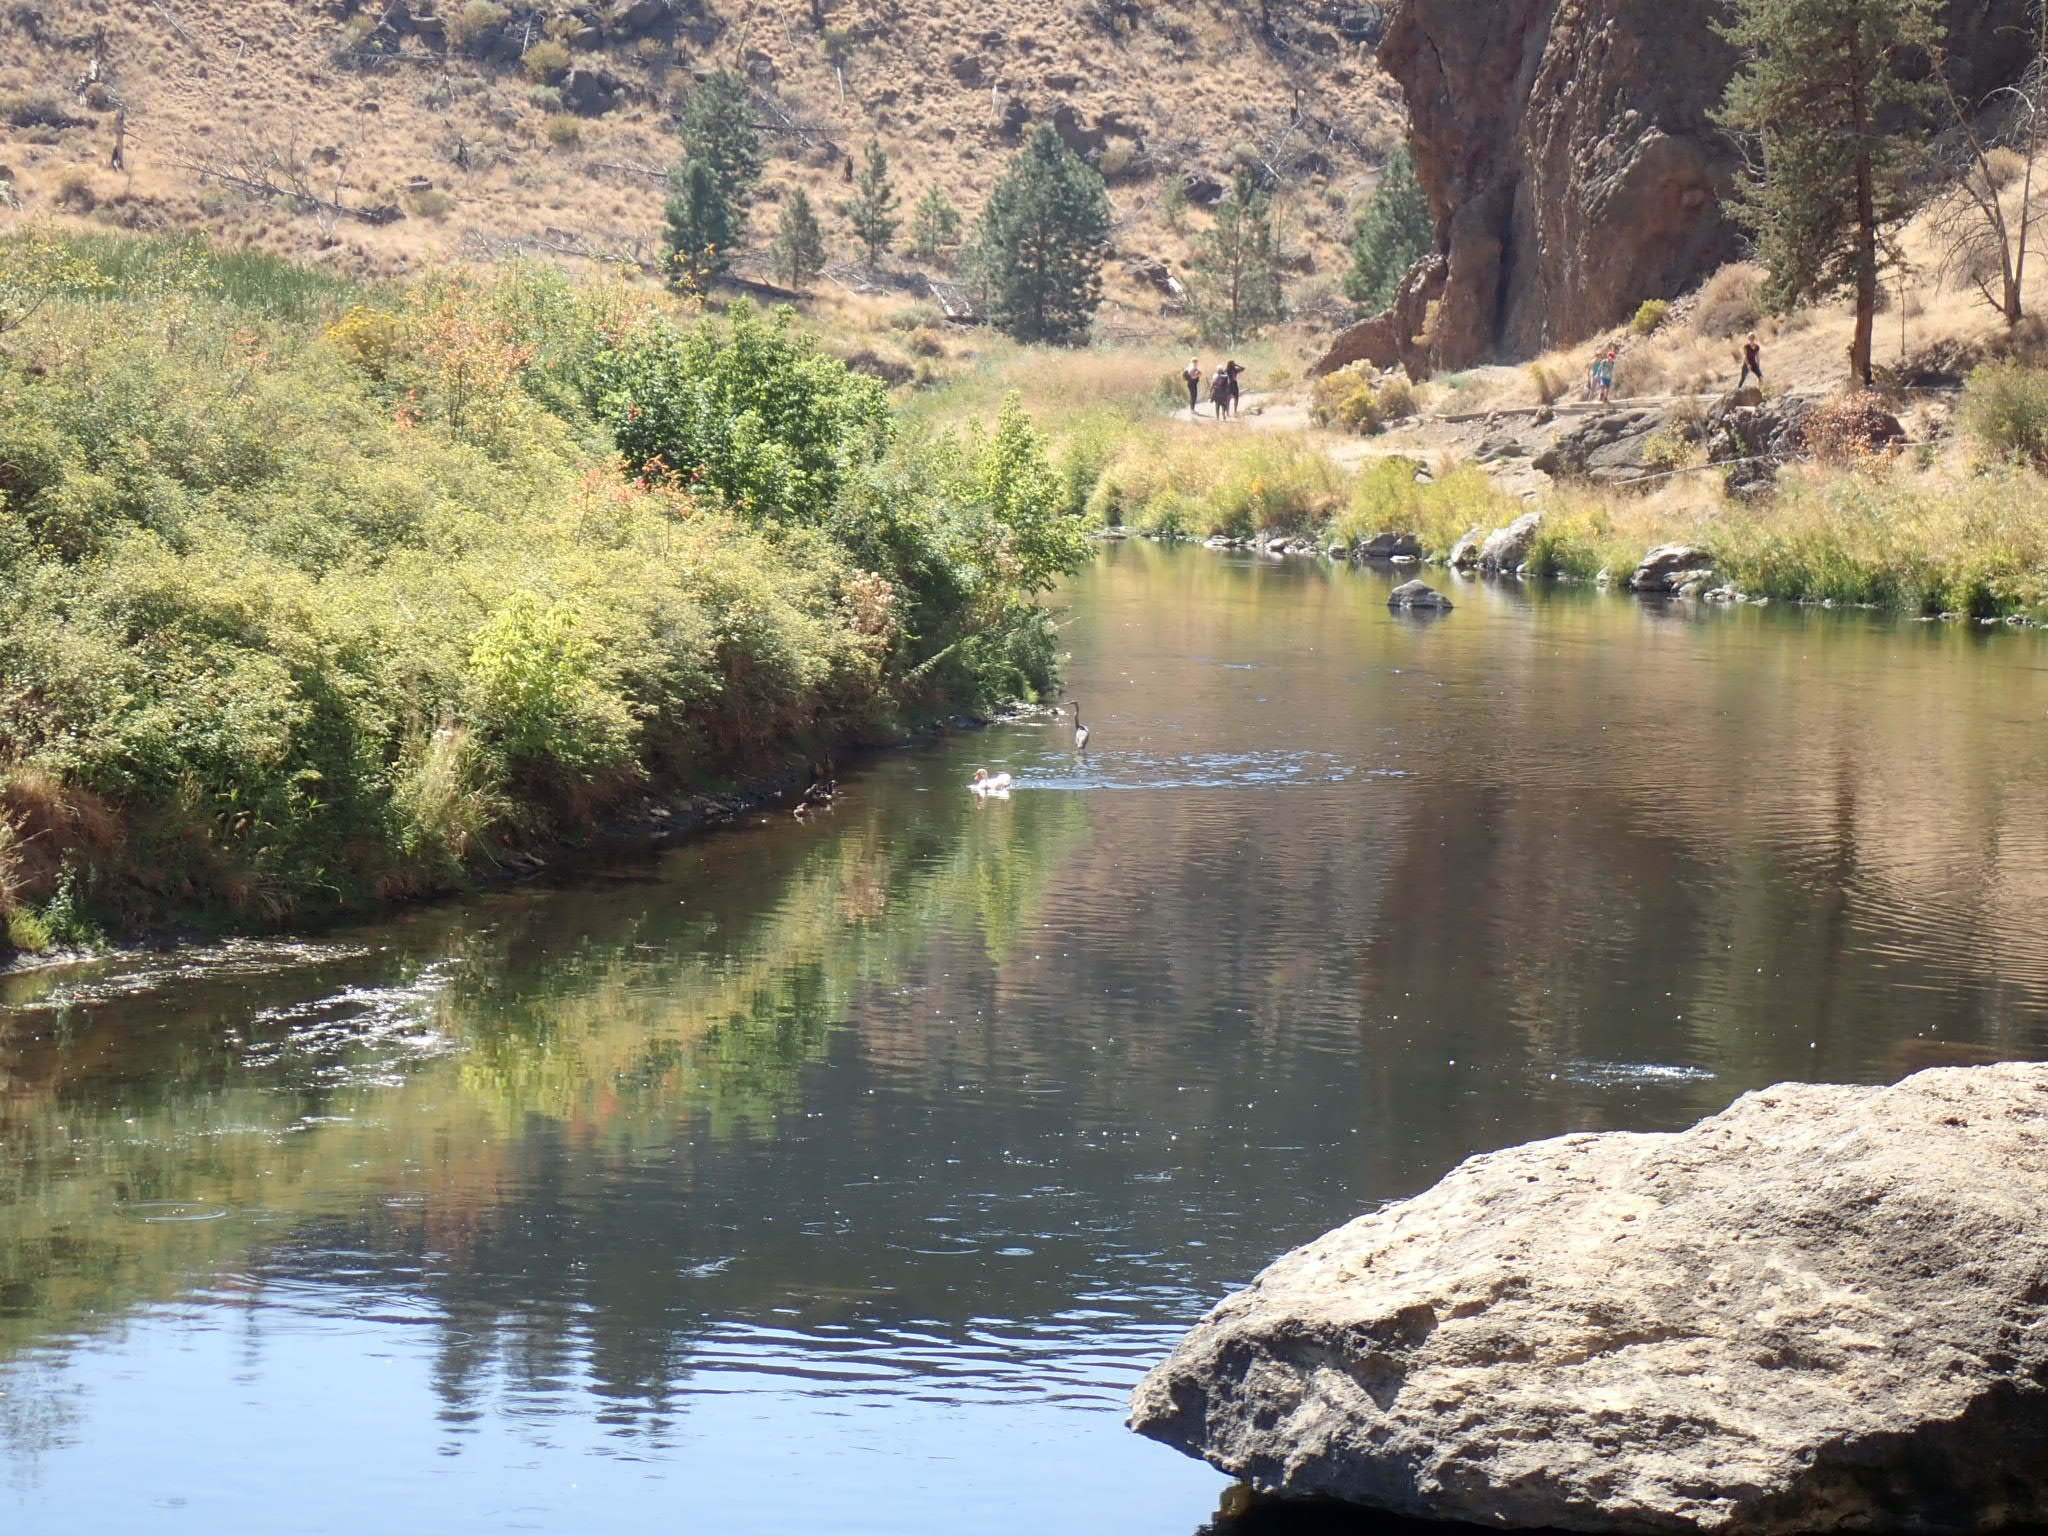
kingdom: Animalia
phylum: Chordata
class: Aves
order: Pelecaniformes
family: Ardeidae
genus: Ardea
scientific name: Ardea herodias
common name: Great blue heron
